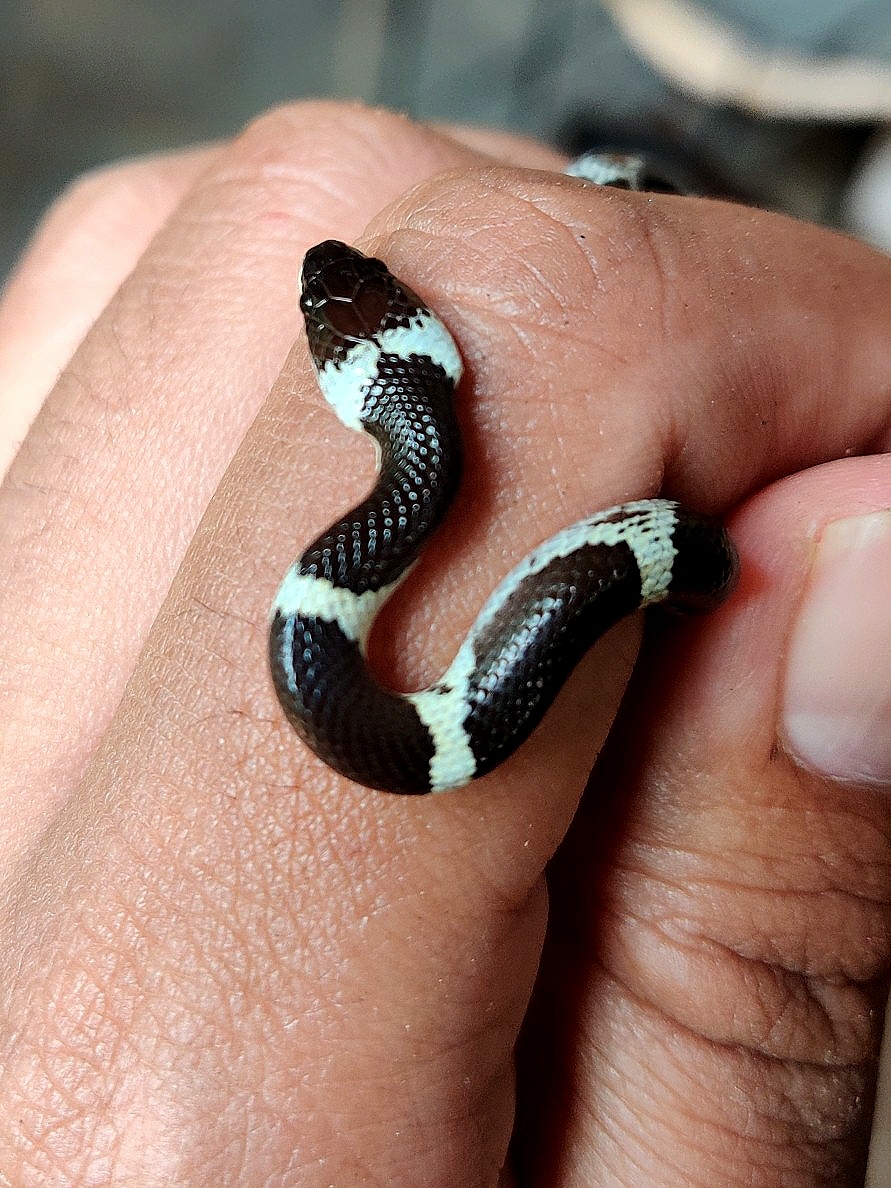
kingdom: Animalia
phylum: Chordata
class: Squamata
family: Colubridae
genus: Lycodon
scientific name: Lycodon aulicus
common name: Common wolf snake
